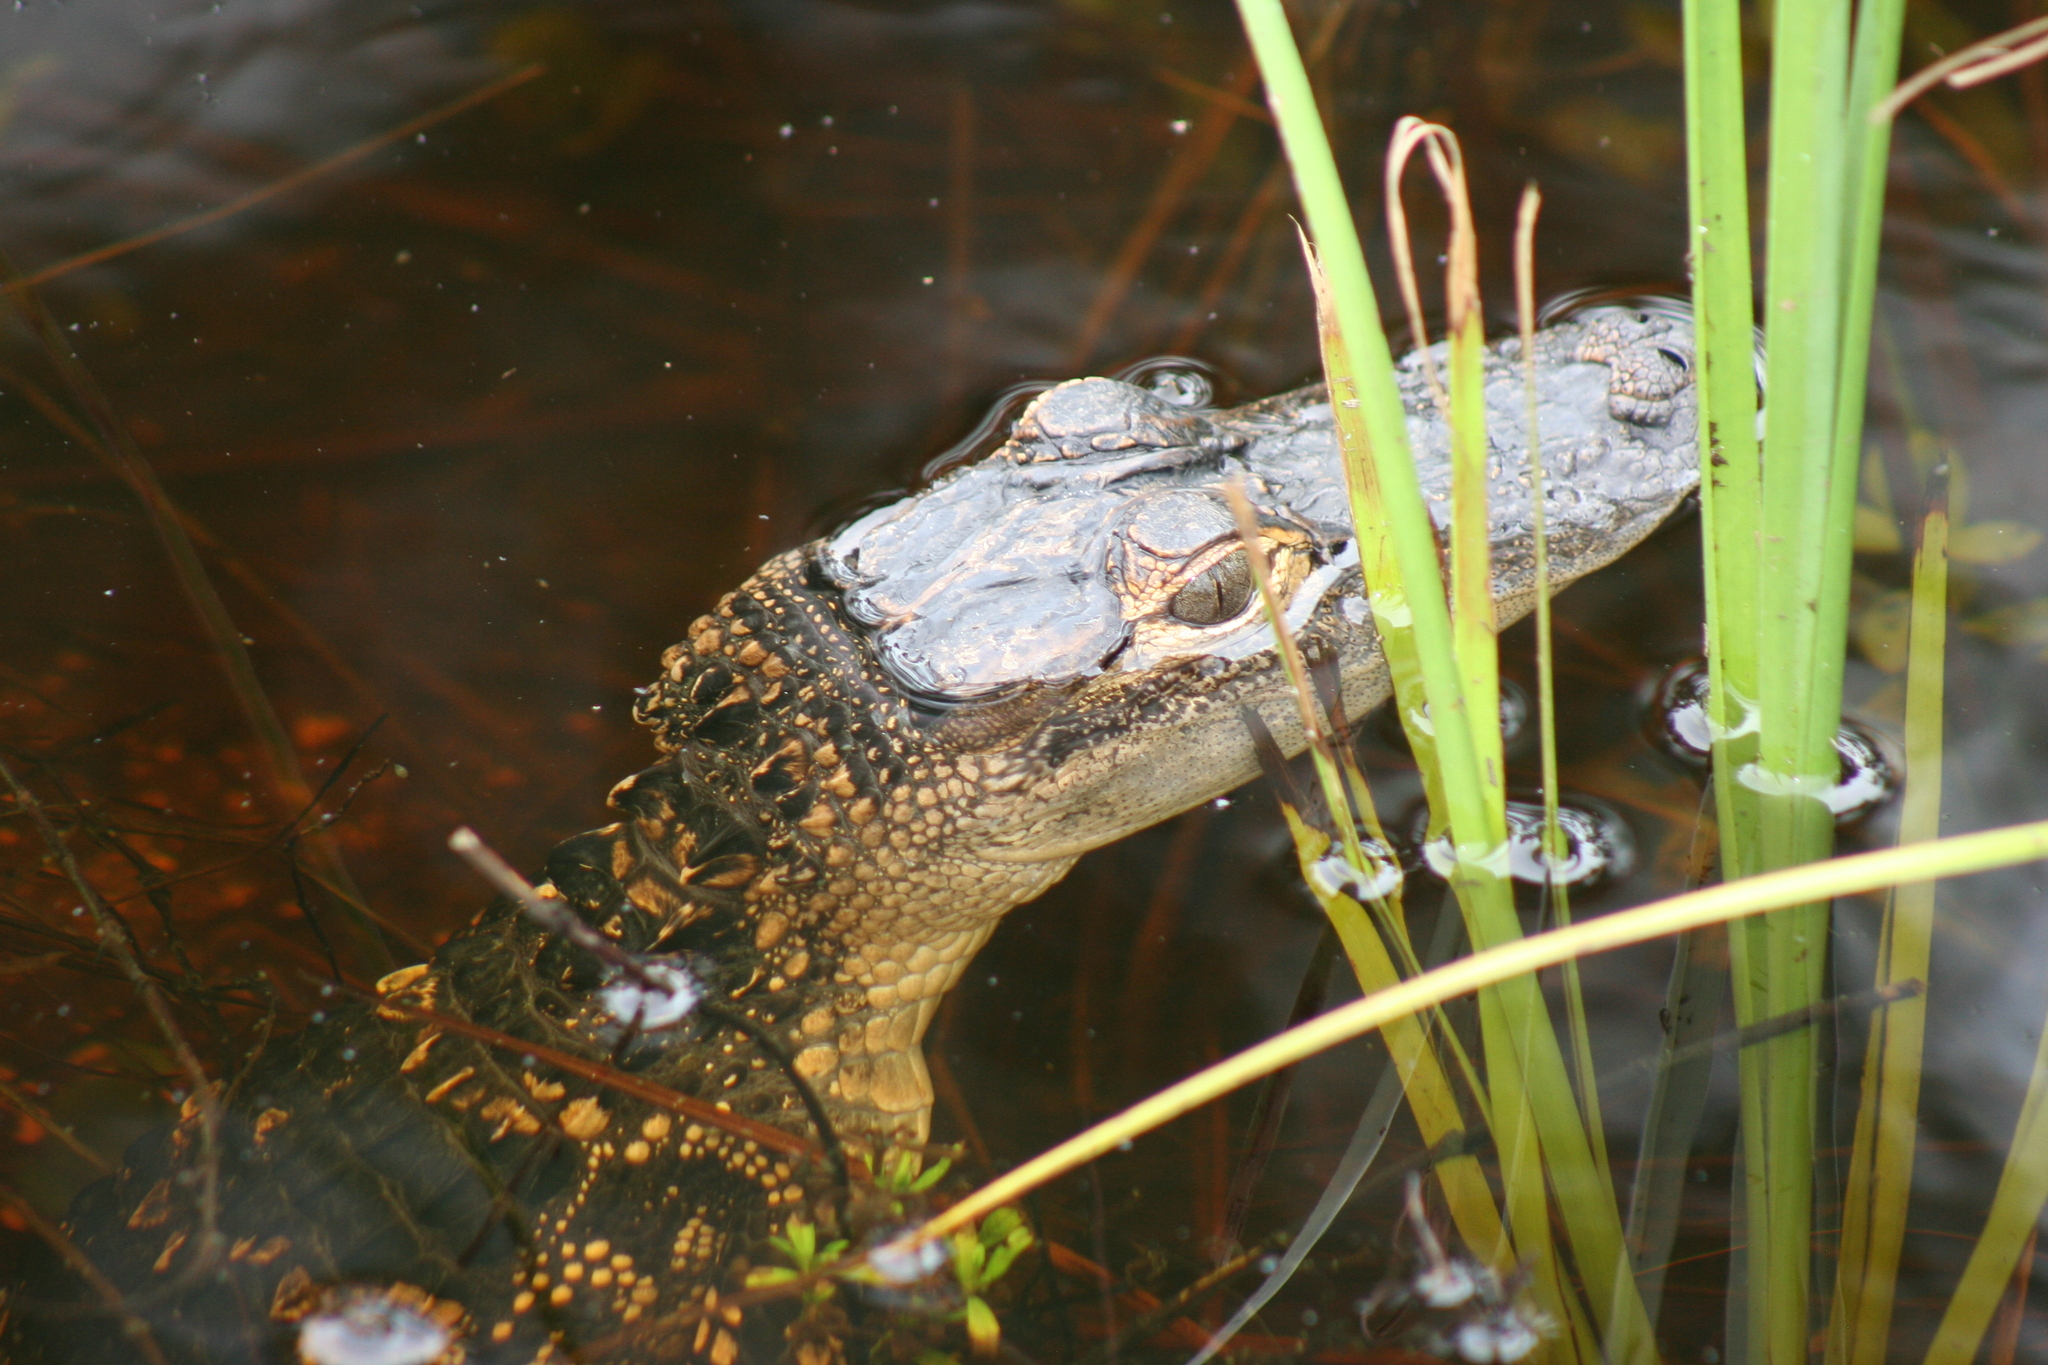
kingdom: Animalia
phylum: Chordata
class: Crocodylia
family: Alligatoridae
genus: Alligator
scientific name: Alligator mississippiensis
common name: American alligator
